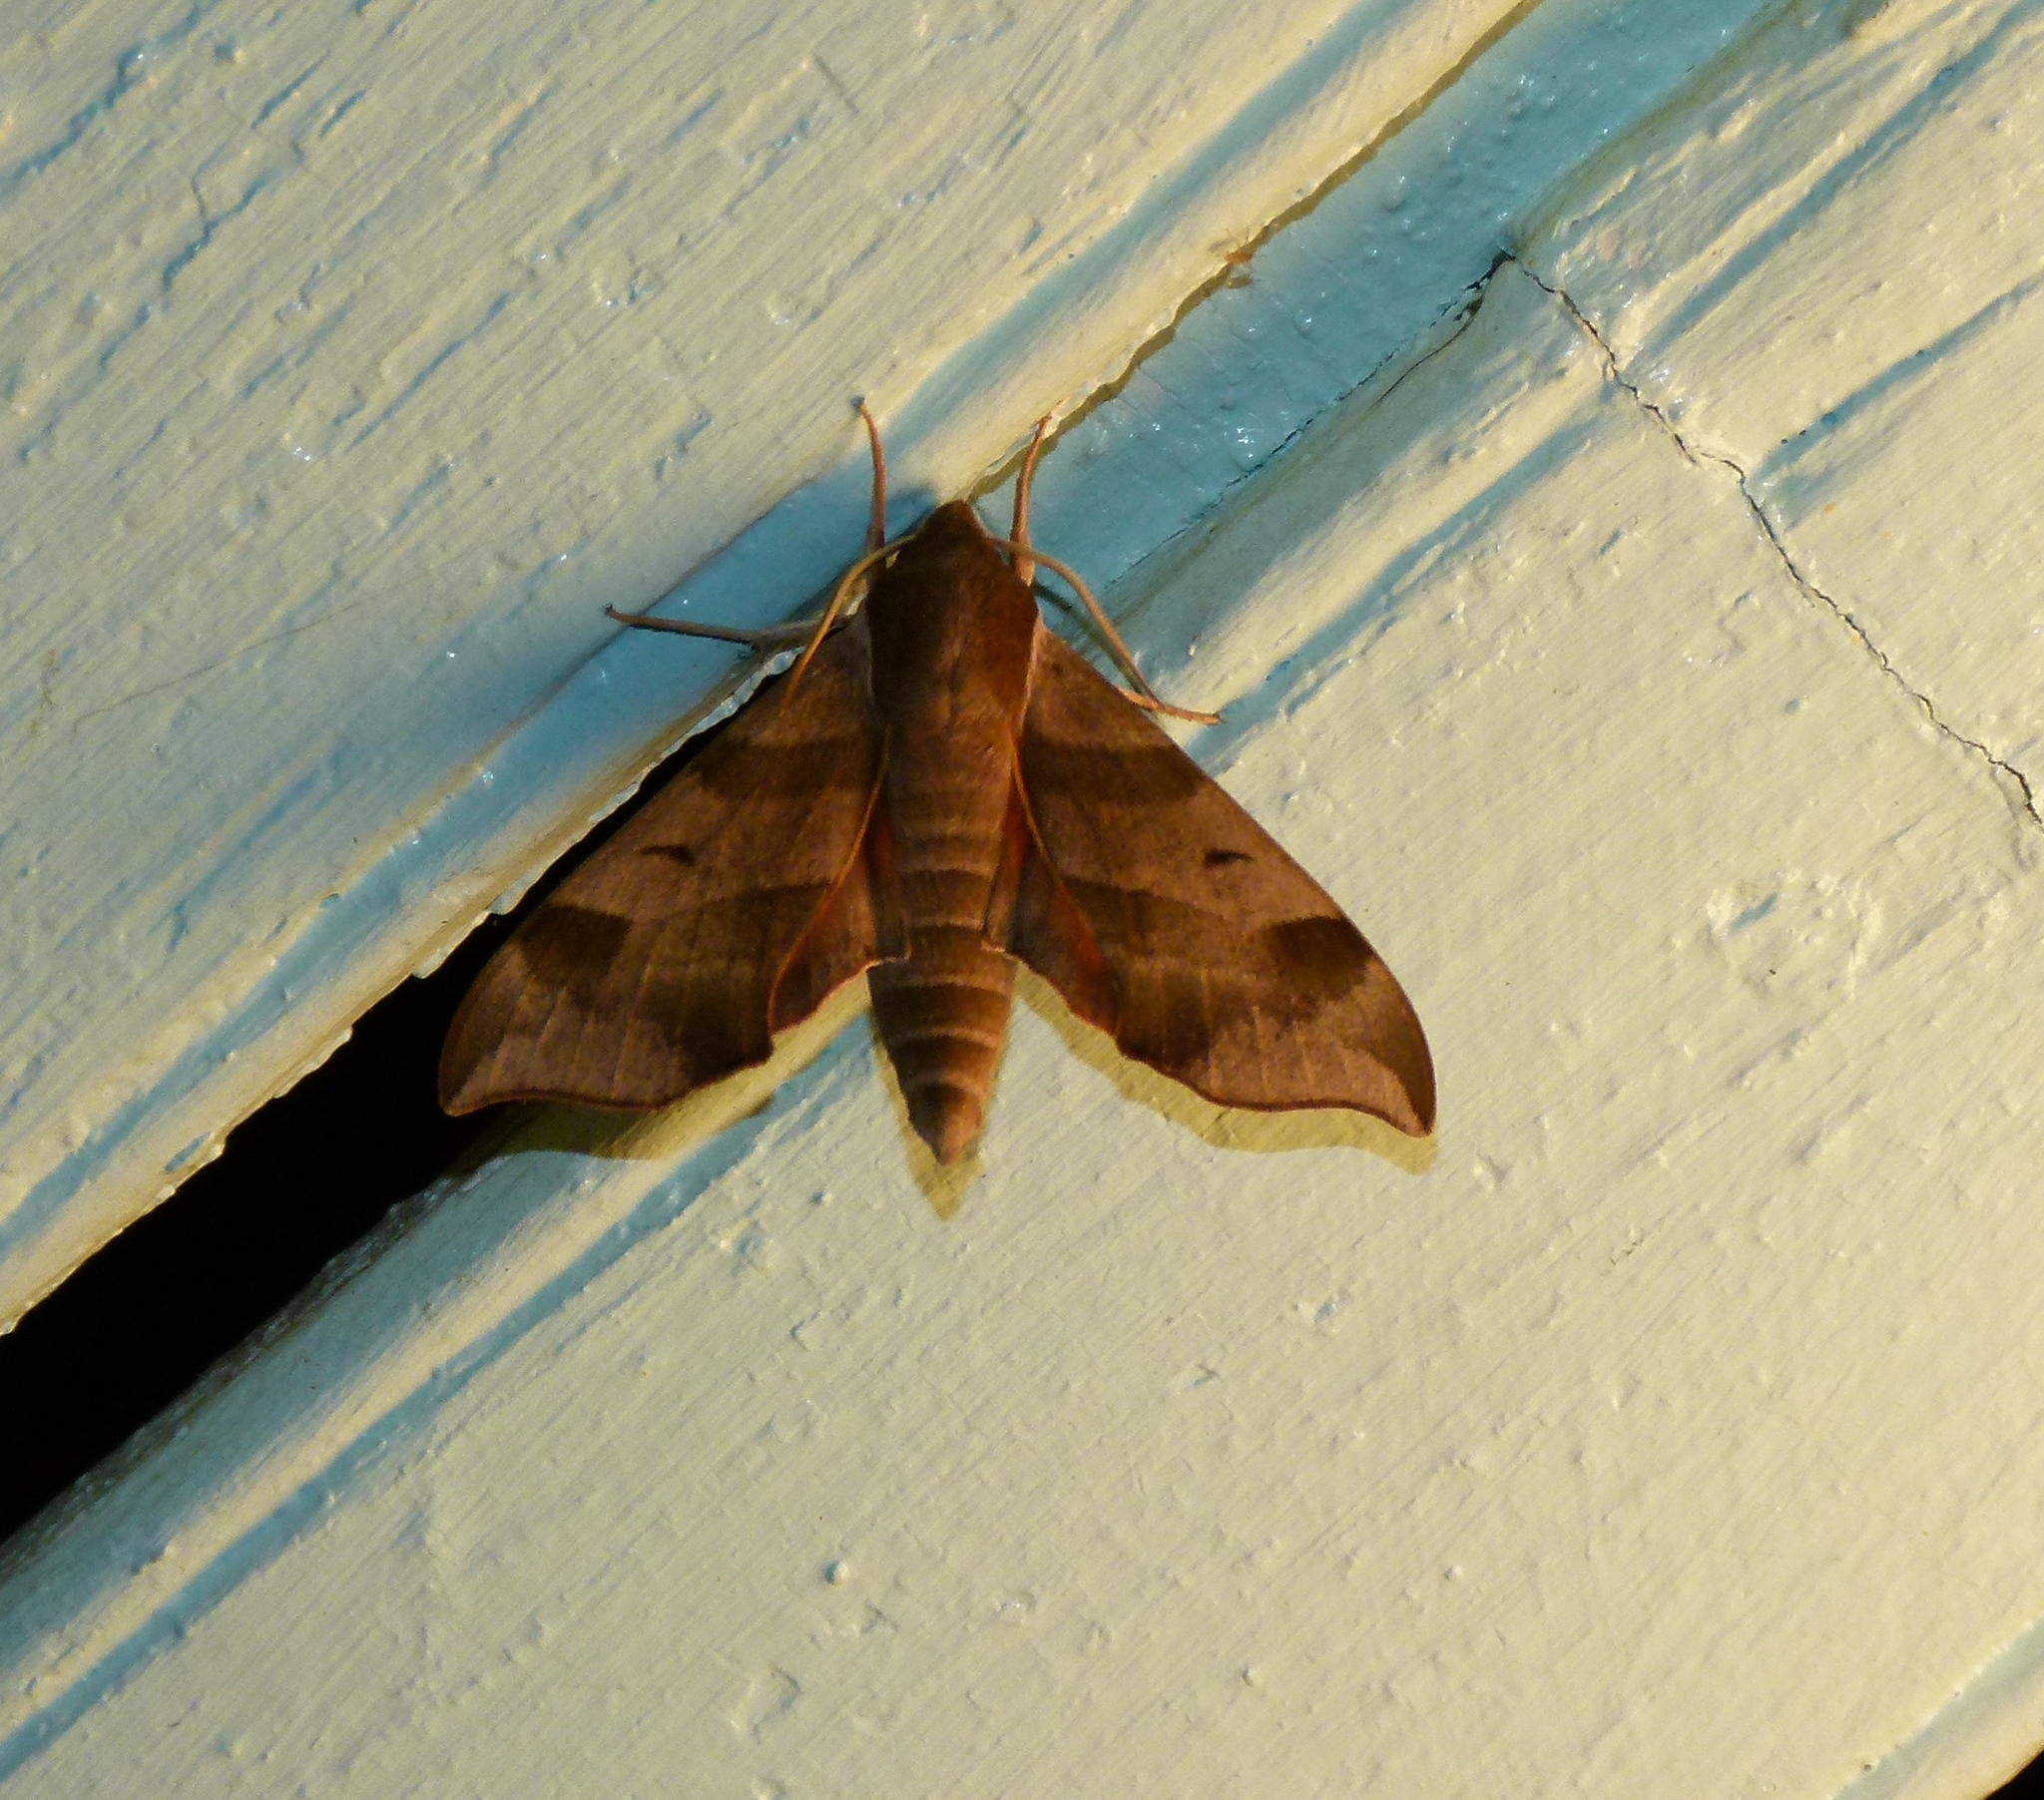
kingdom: Animalia
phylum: Arthropoda
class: Insecta
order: Lepidoptera
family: Sphingidae
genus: Darapsa
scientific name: Darapsa myron
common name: Hog sphinx
